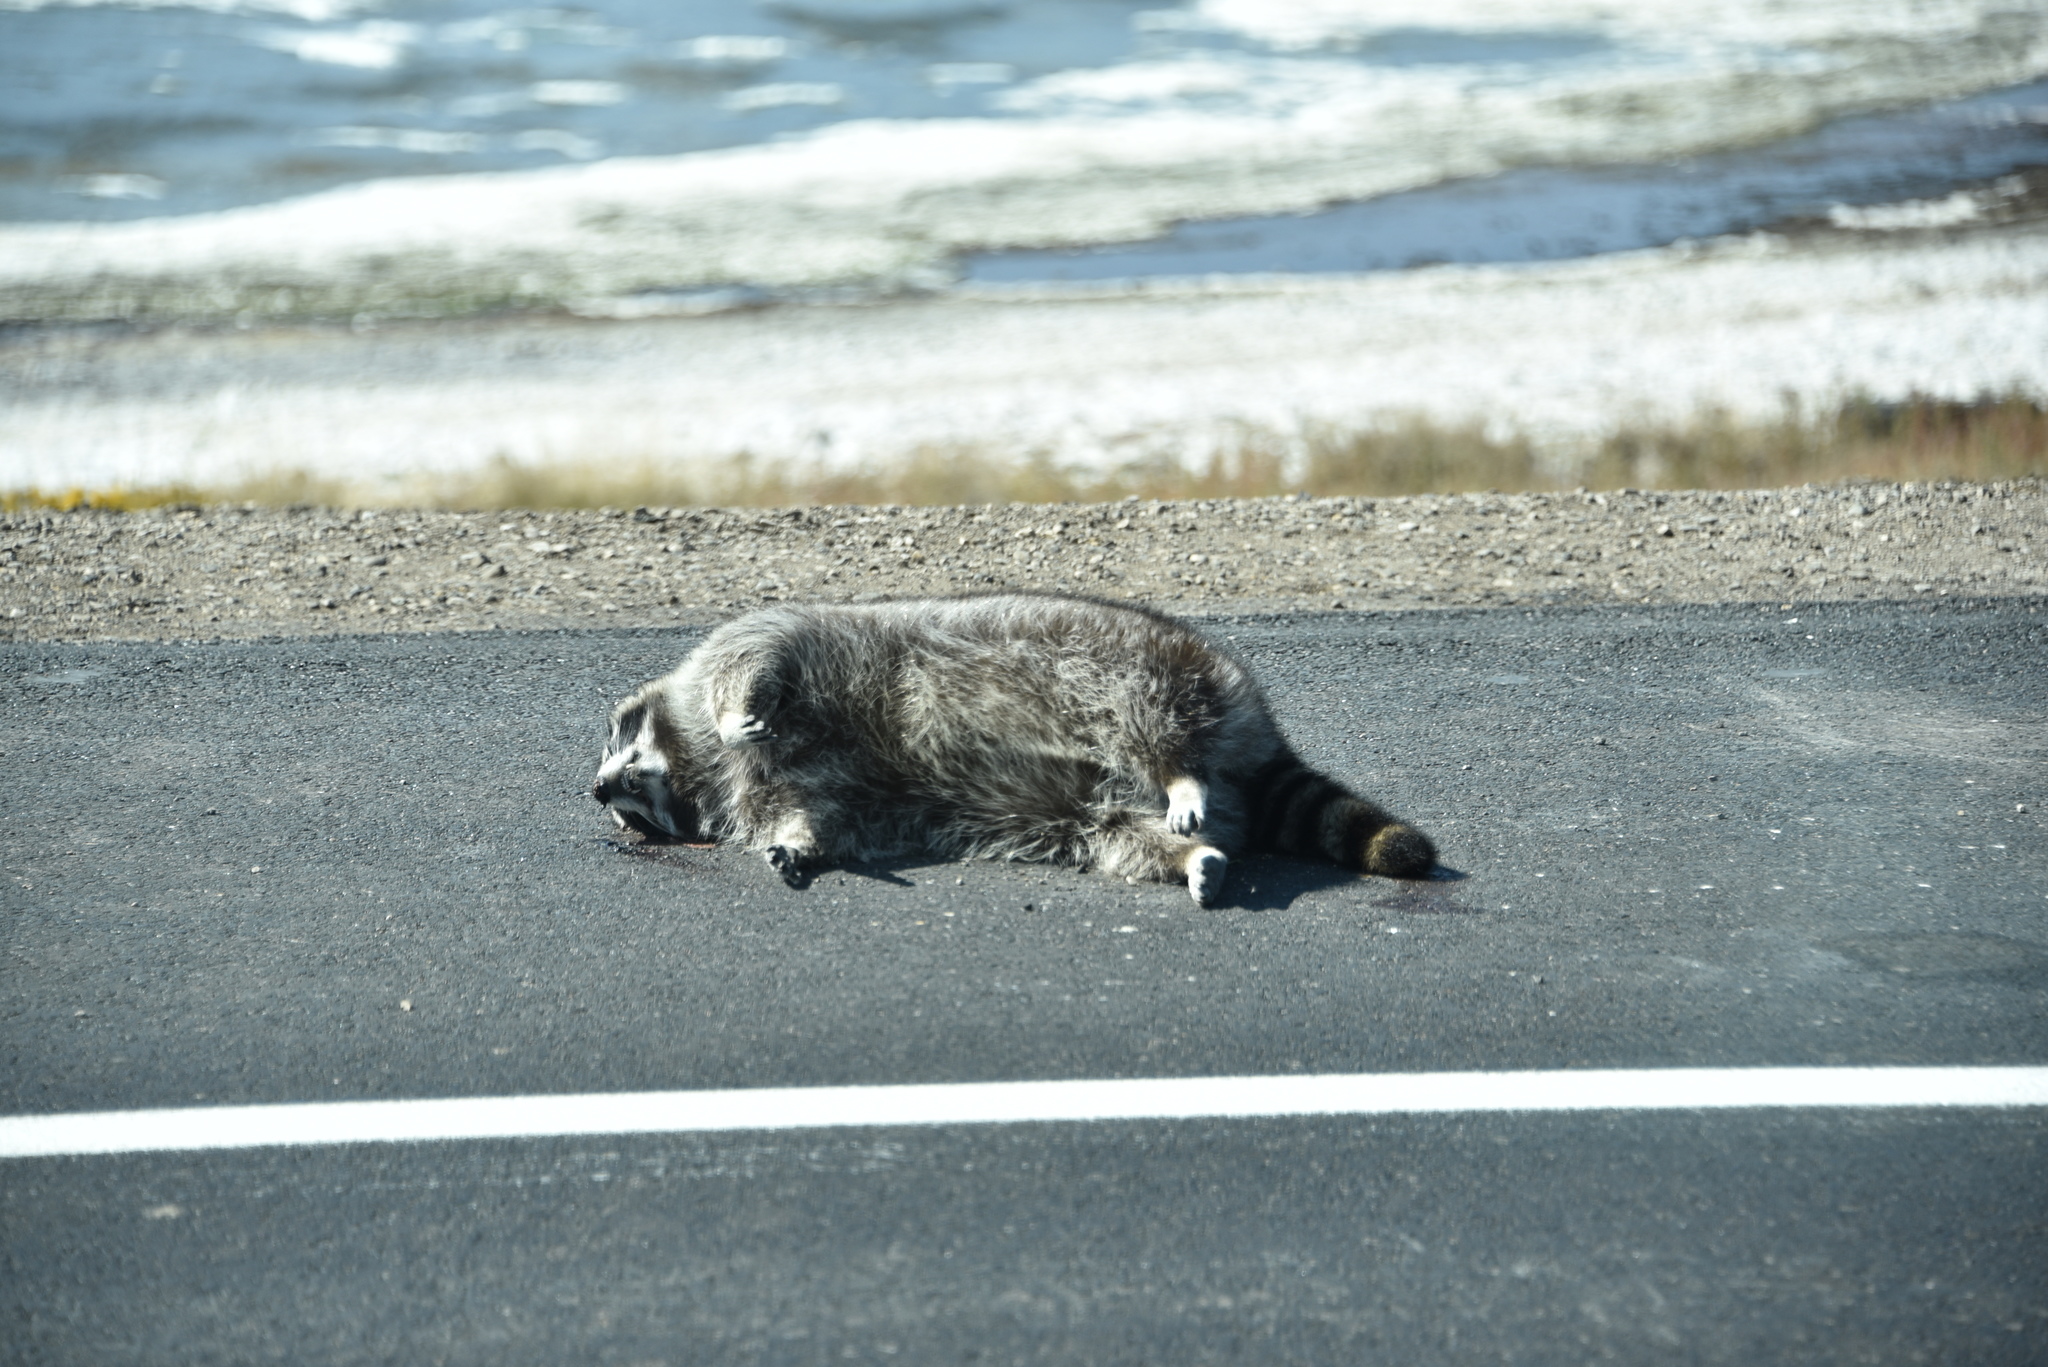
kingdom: Animalia
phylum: Chordata
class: Mammalia
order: Carnivora
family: Procyonidae
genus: Procyon
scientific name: Procyon lotor
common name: Raccoon
